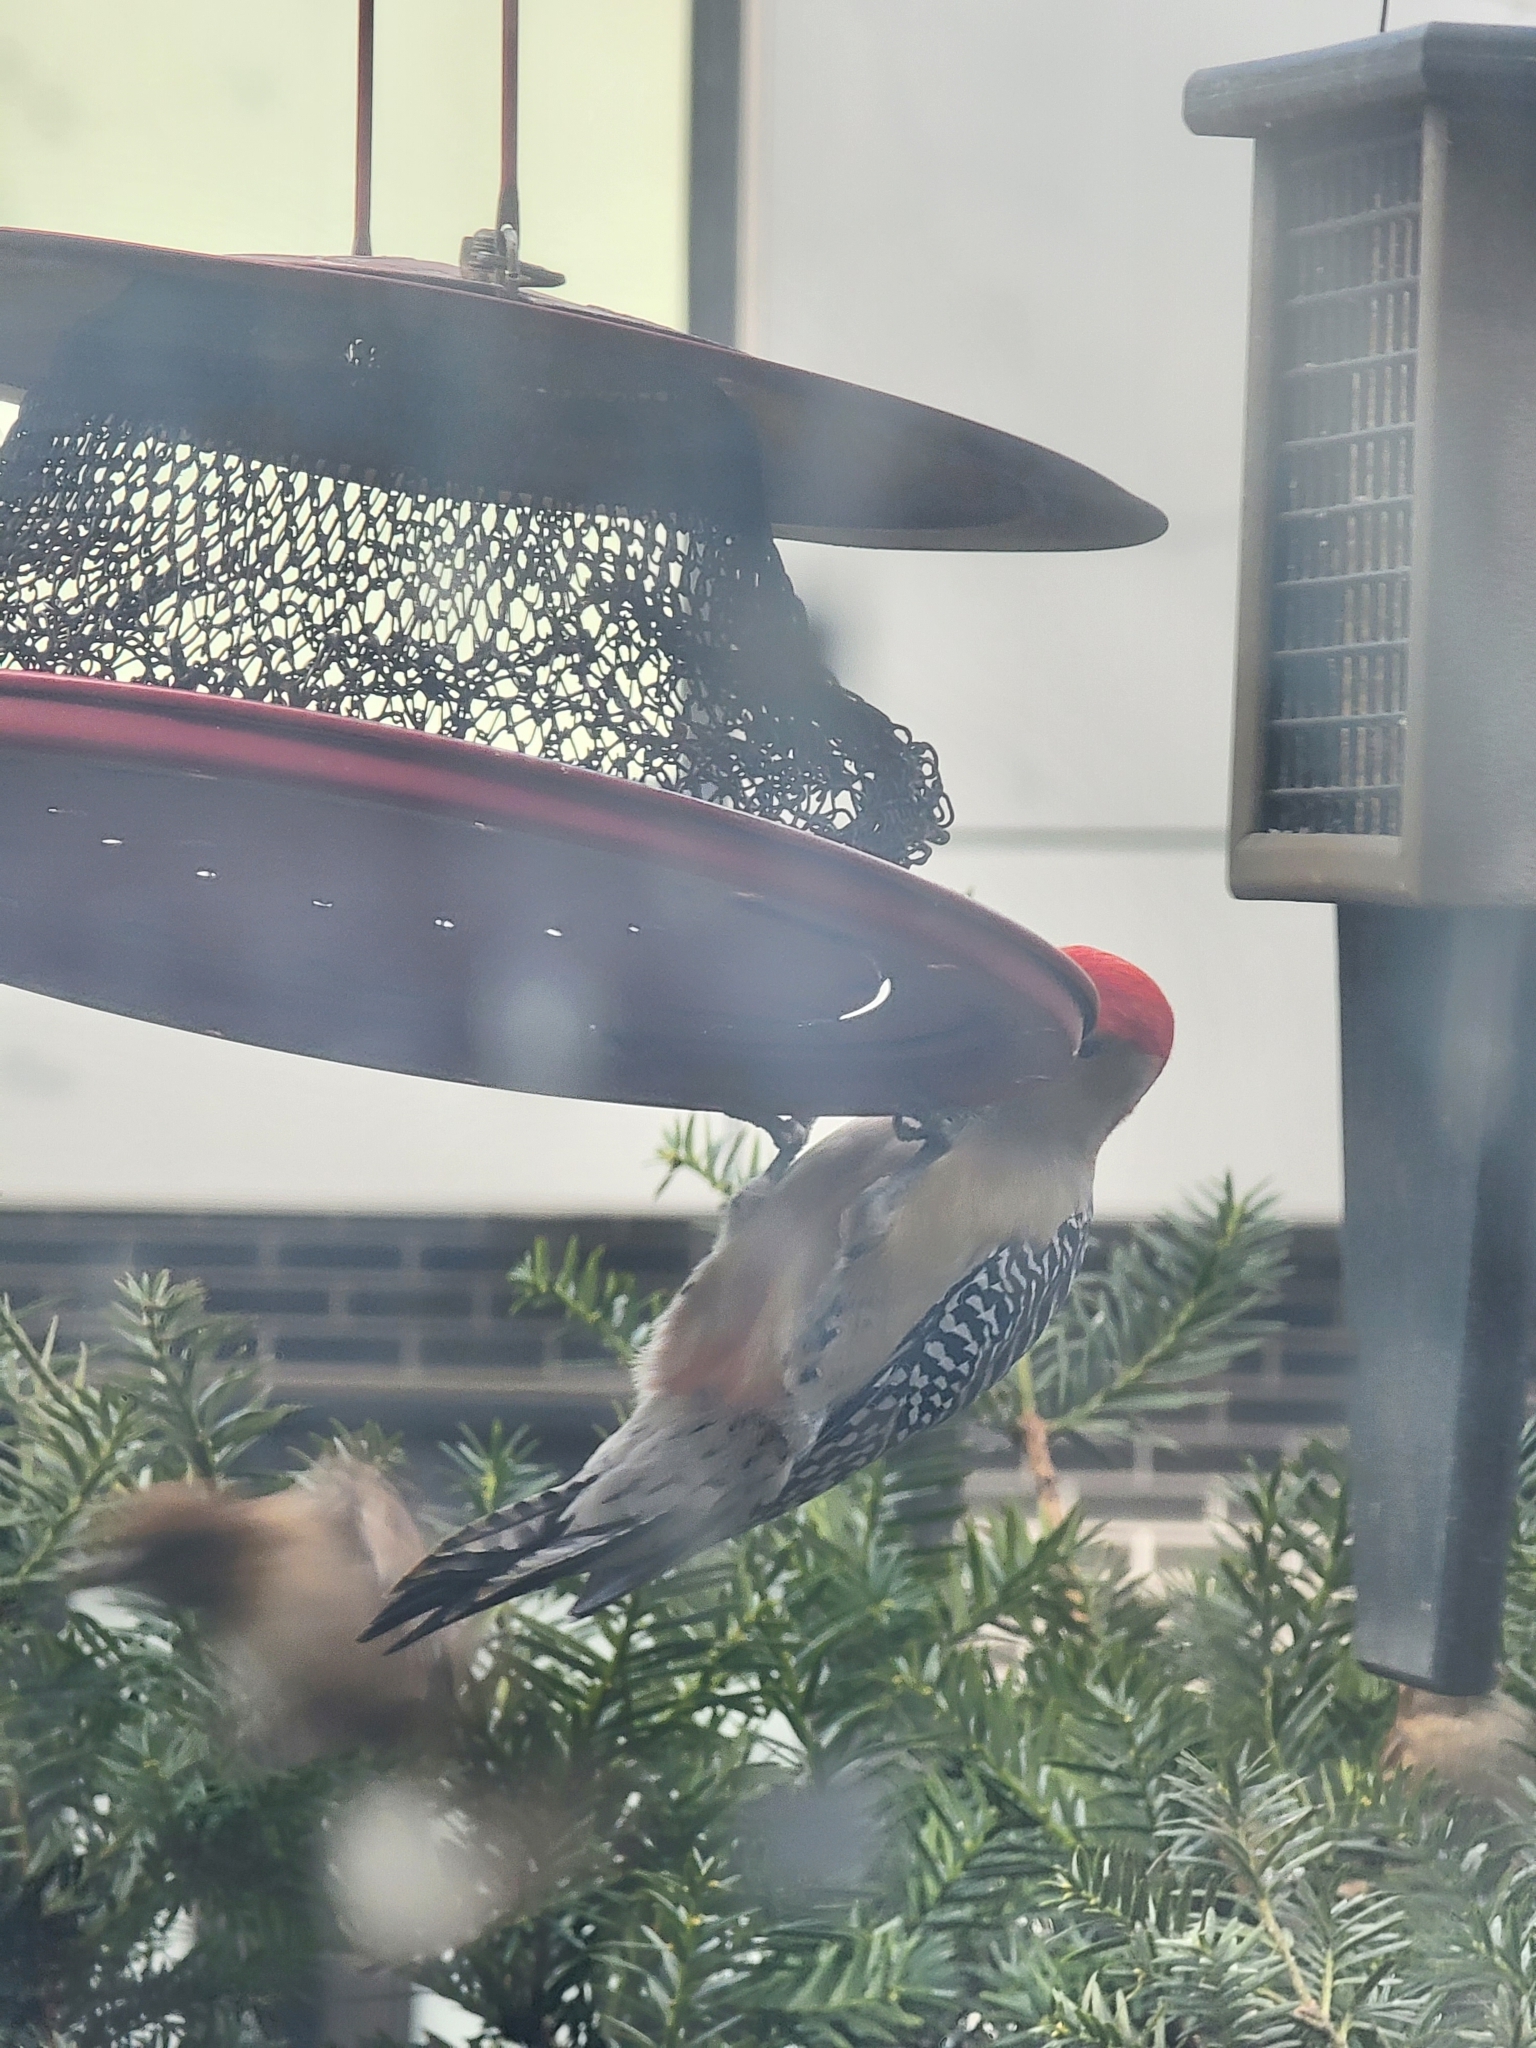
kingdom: Animalia
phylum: Chordata
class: Aves
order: Piciformes
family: Picidae
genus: Melanerpes
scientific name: Melanerpes carolinus
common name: Red-bellied woodpecker
